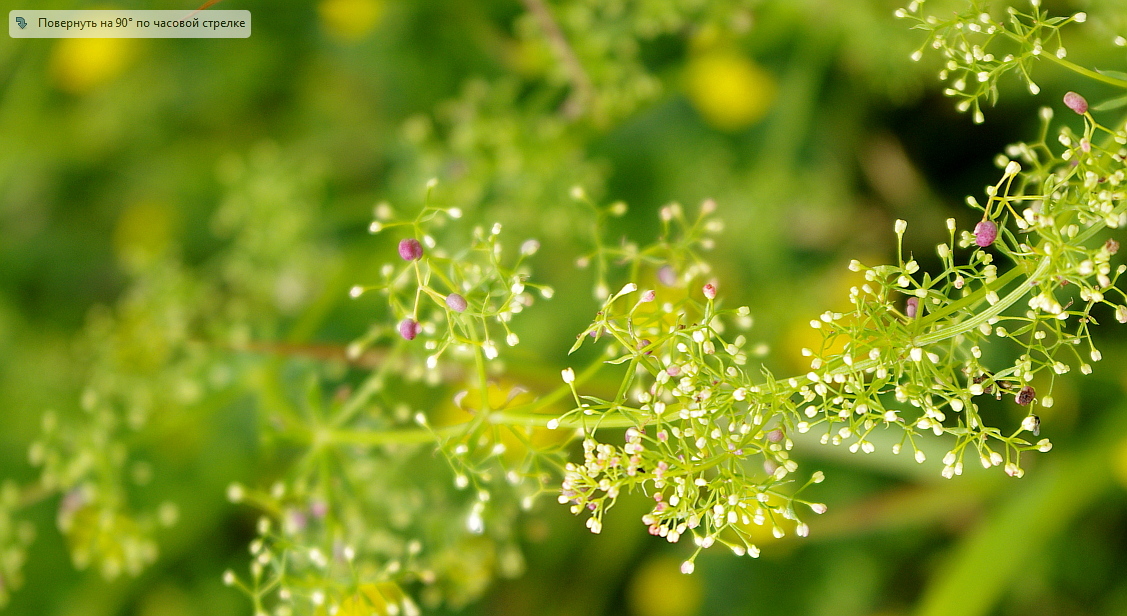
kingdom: Plantae
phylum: Tracheophyta
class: Magnoliopsida
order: Gentianales
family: Rubiaceae
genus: Galium
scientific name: Galium mollugo
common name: Hedge bedstraw
